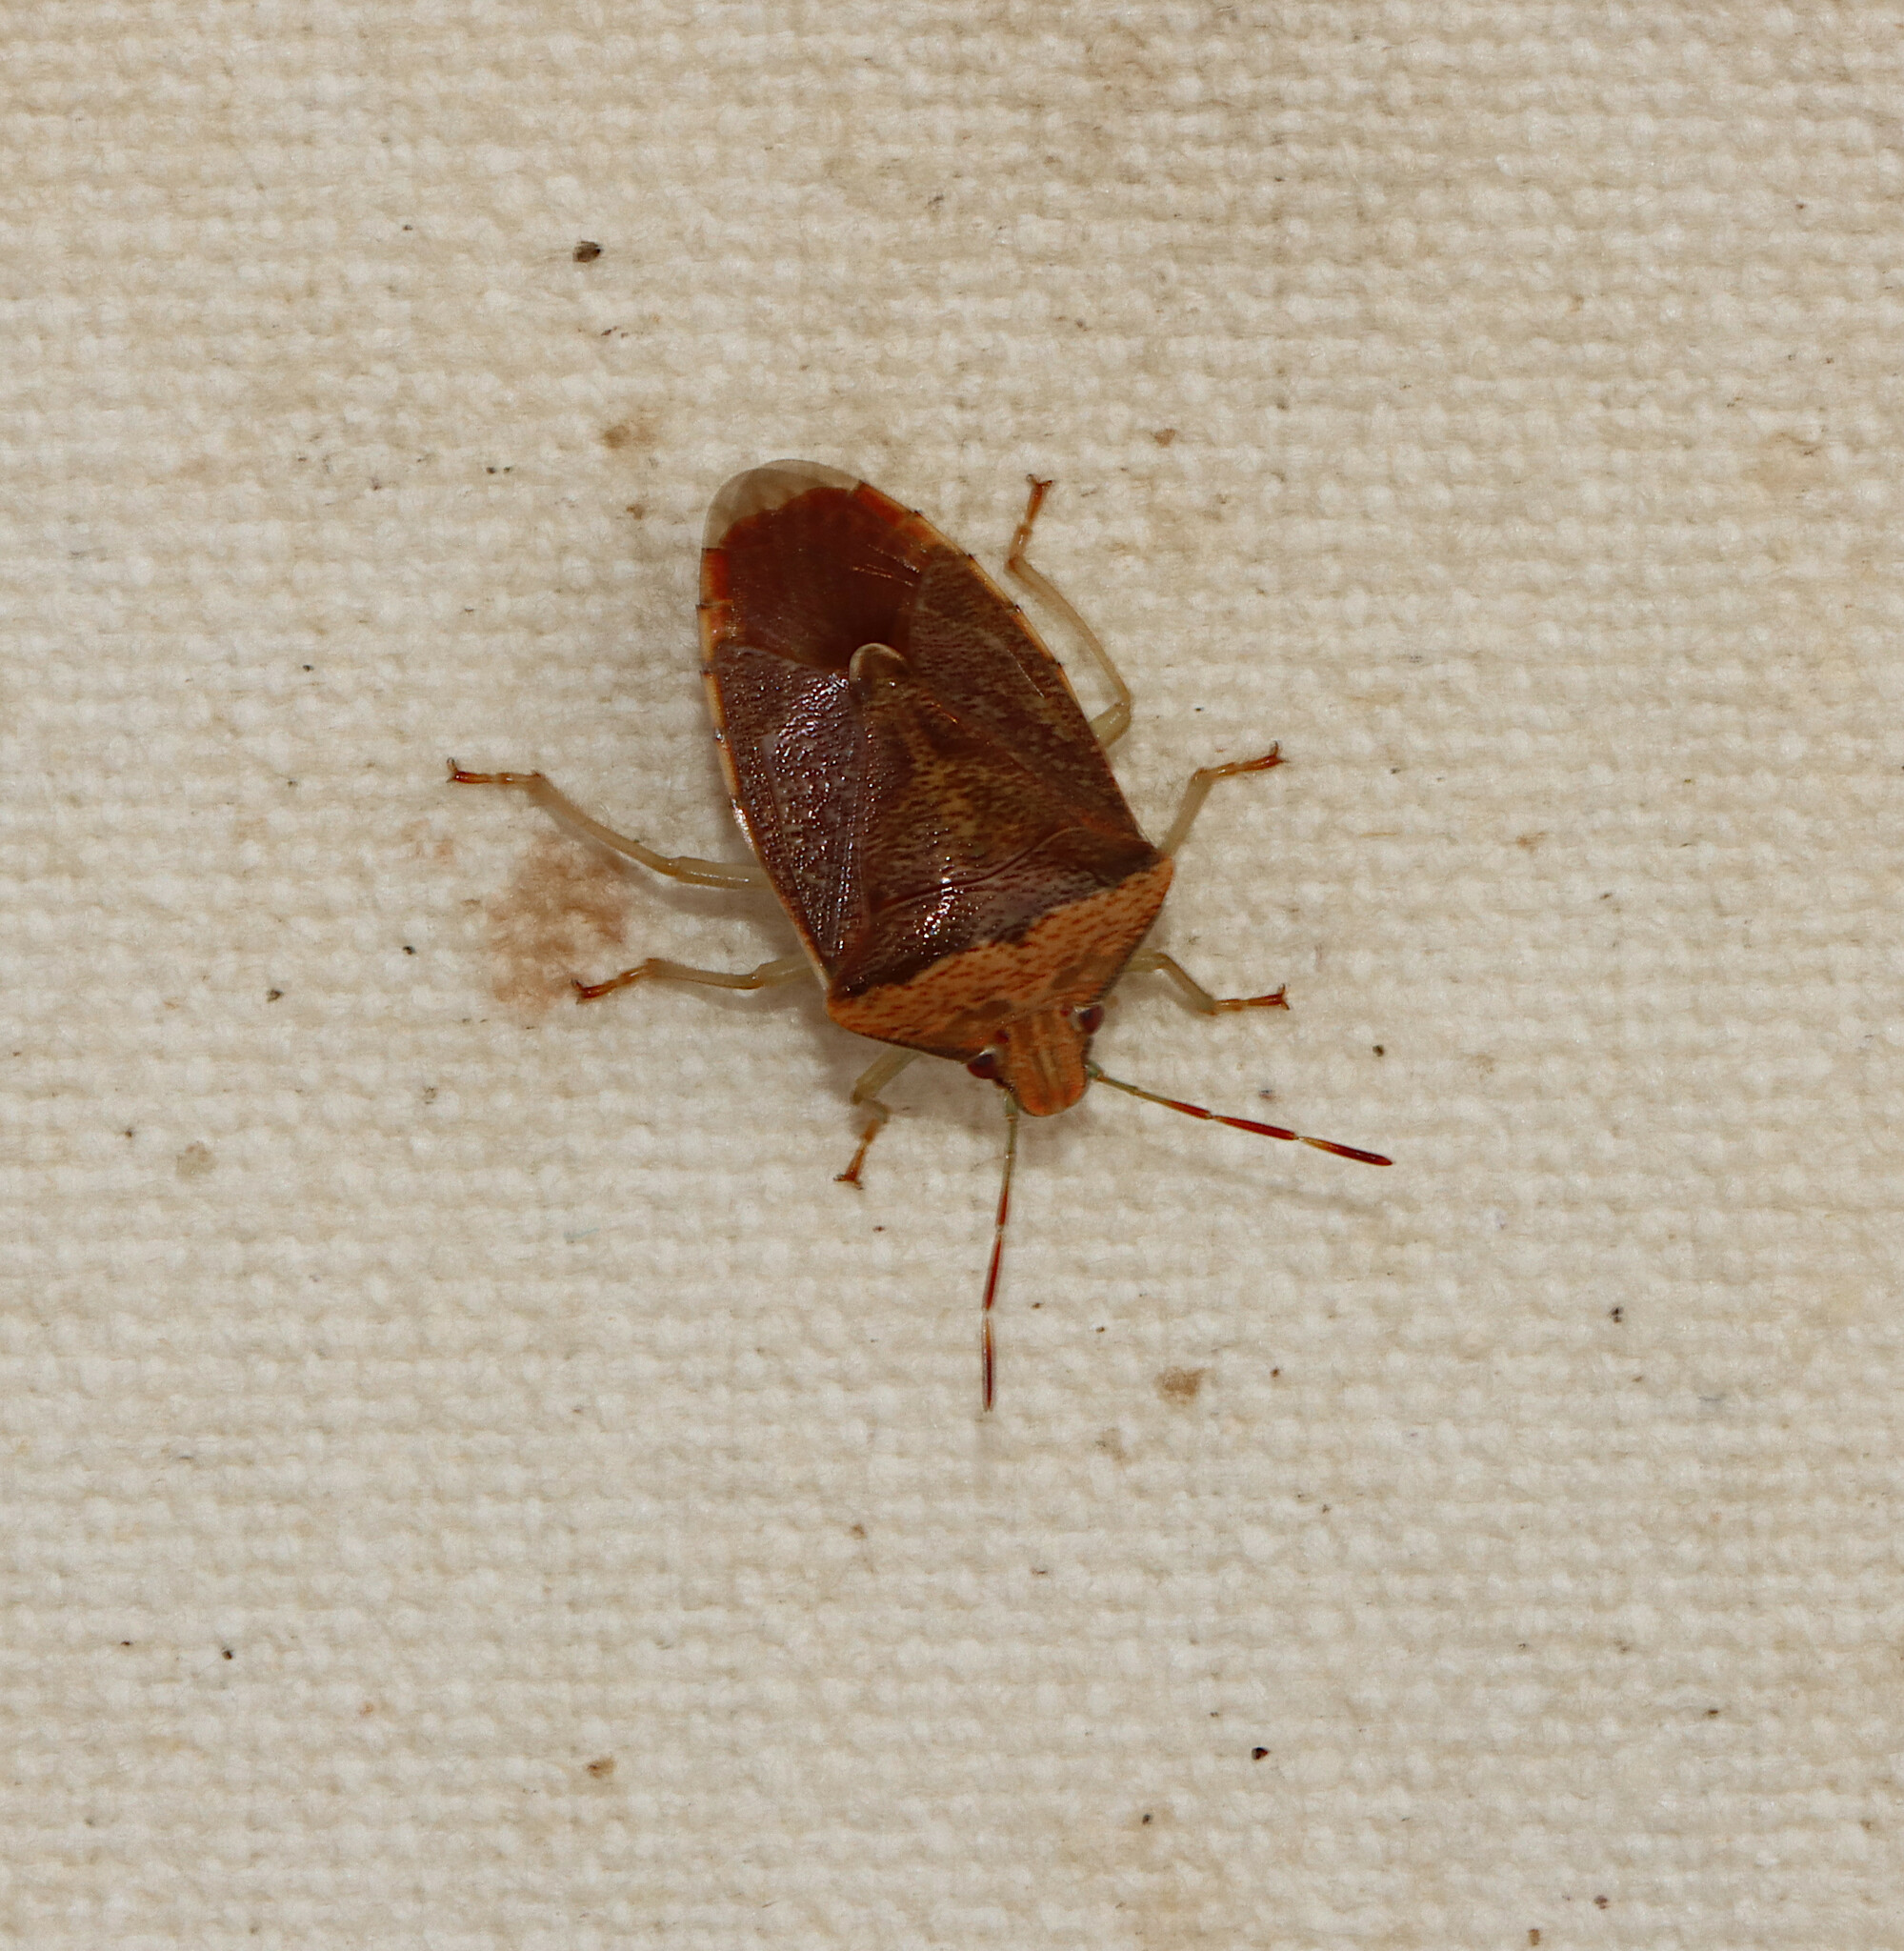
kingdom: Animalia
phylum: Arthropoda
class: Insecta
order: Hemiptera
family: Pentatomidae
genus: Banasa
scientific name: Banasa calva
